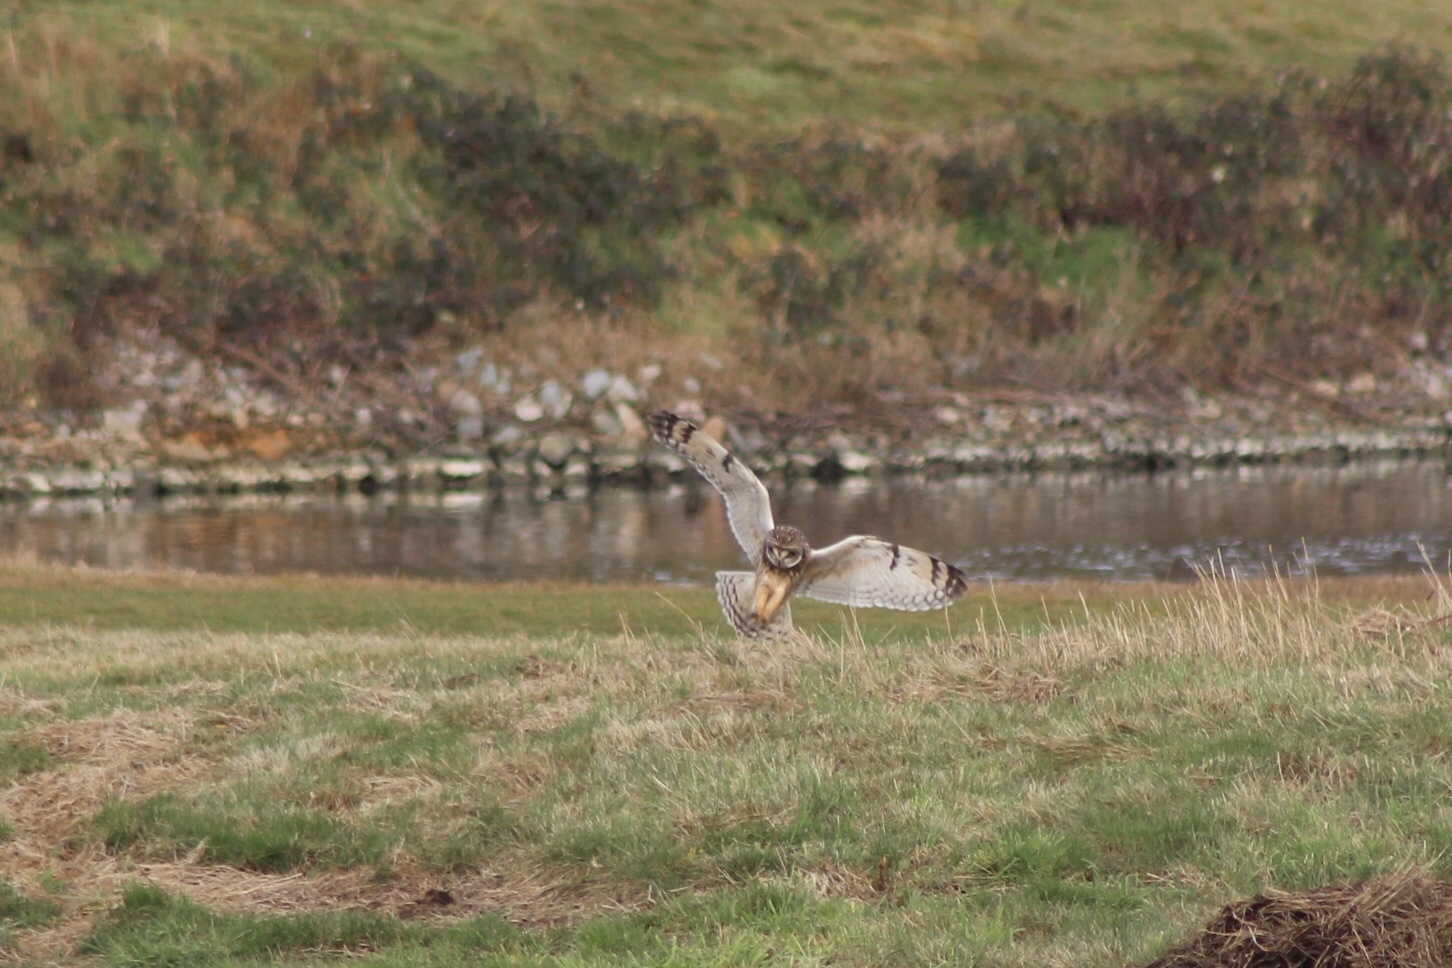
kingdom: Animalia
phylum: Chordata
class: Aves
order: Strigiformes
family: Strigidae
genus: Asio
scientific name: Asio flammeus
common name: Short-eared owl
